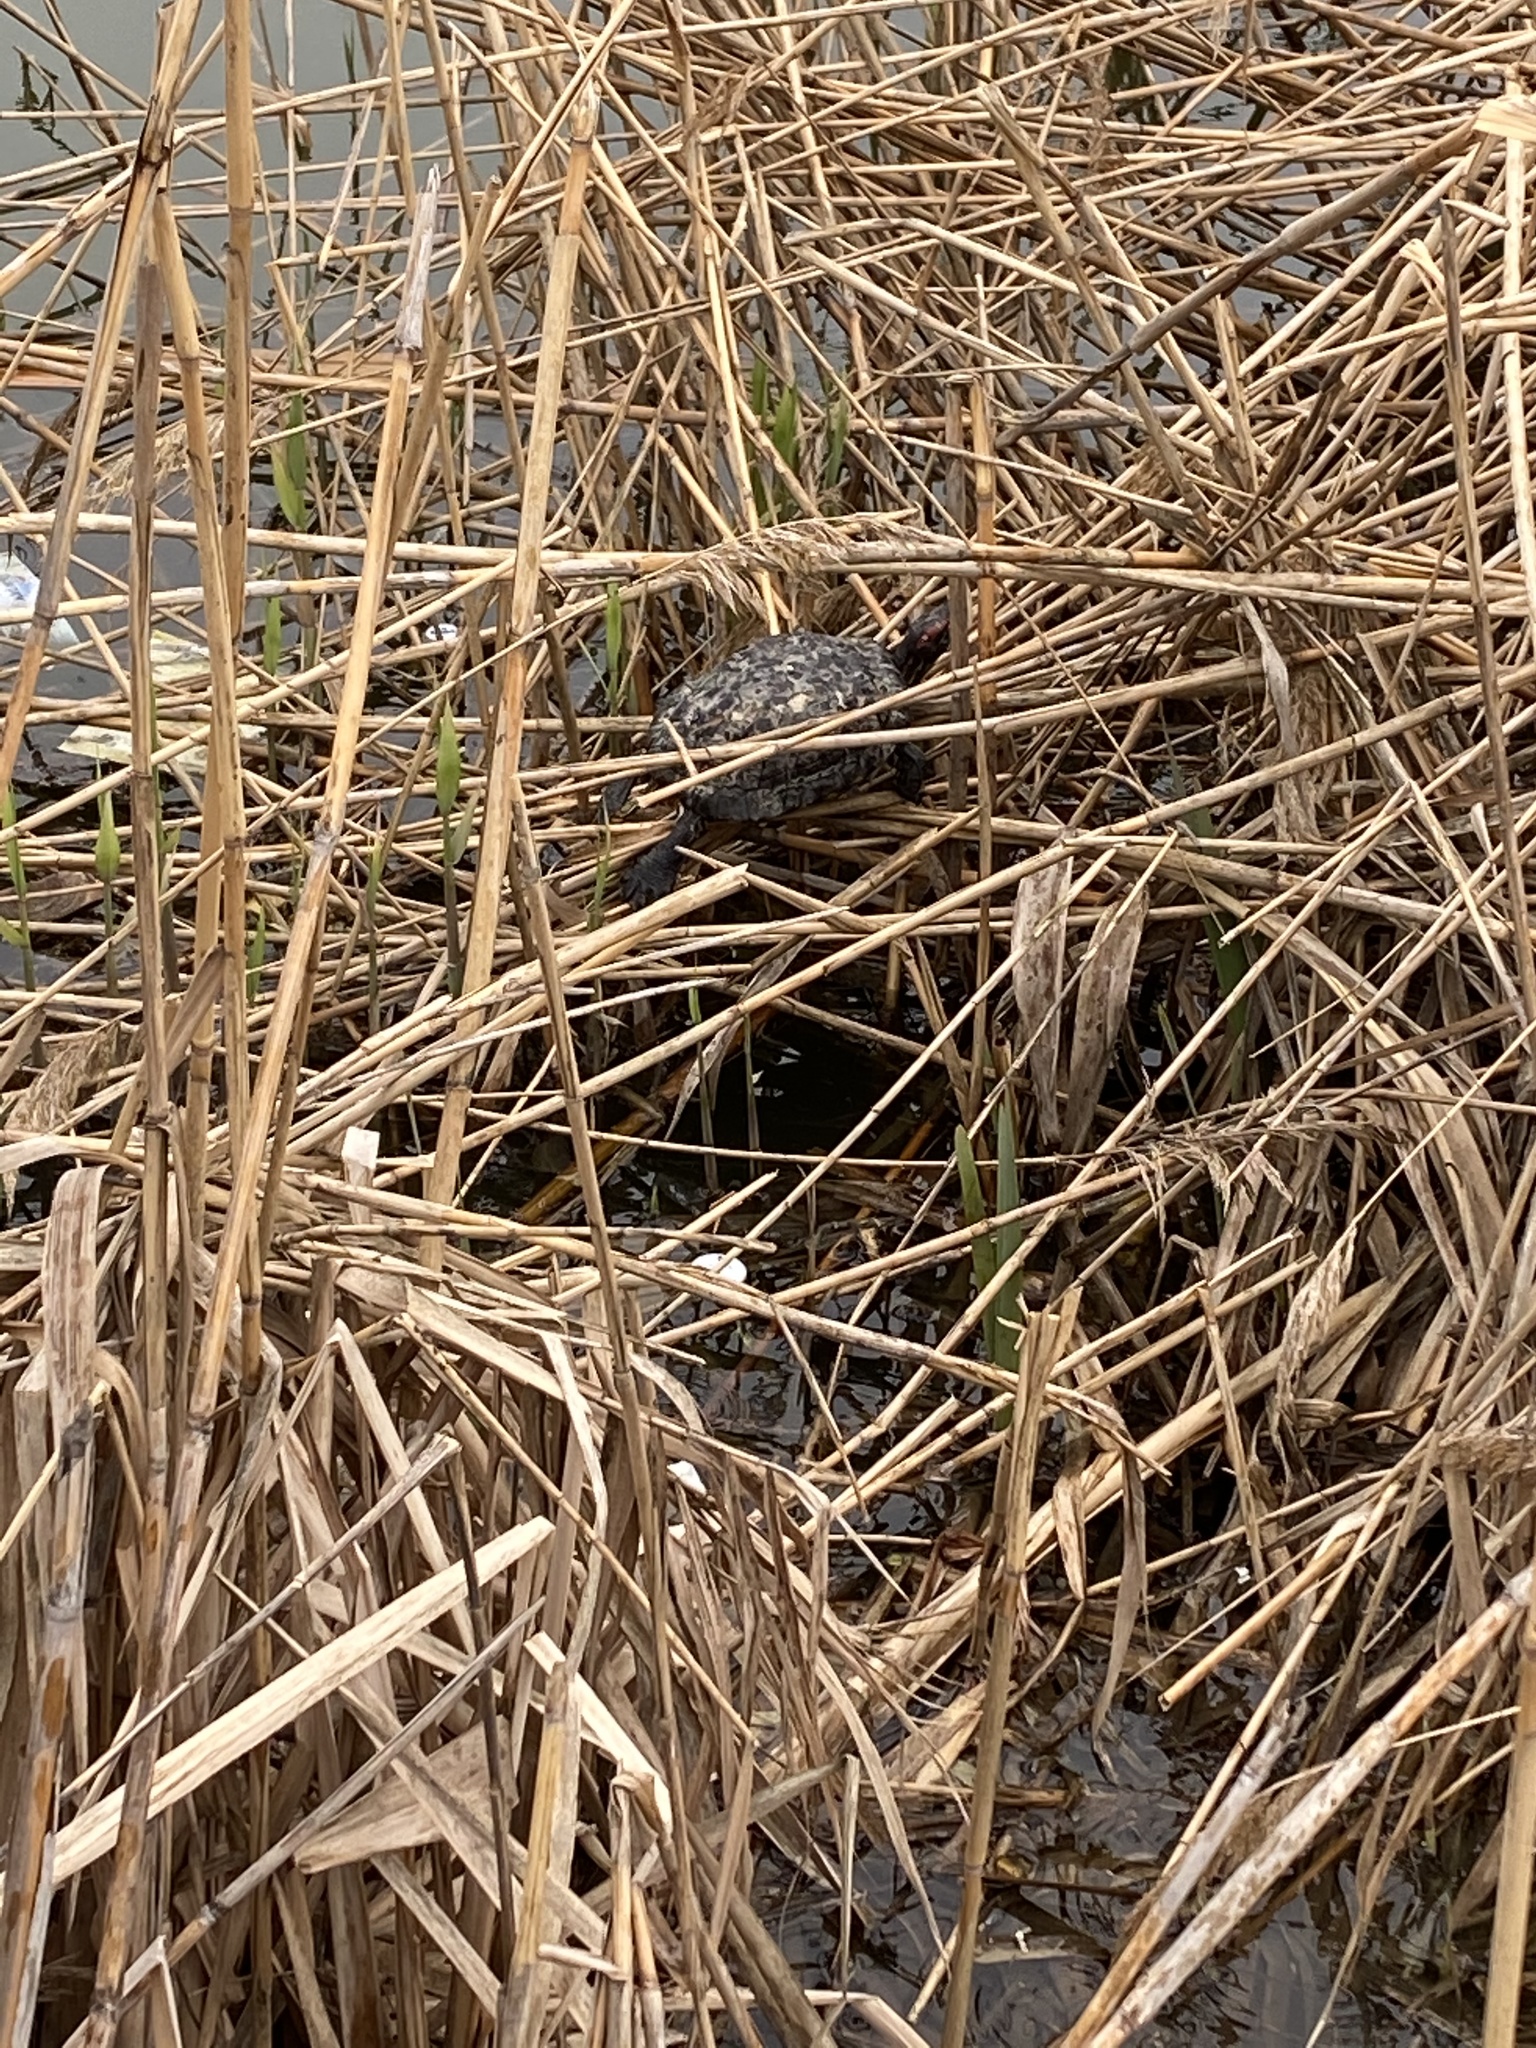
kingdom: Animalia
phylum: Chordata
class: Testudines
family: Emydidae
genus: Trachemys
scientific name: Trachemys scripta
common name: Slider
